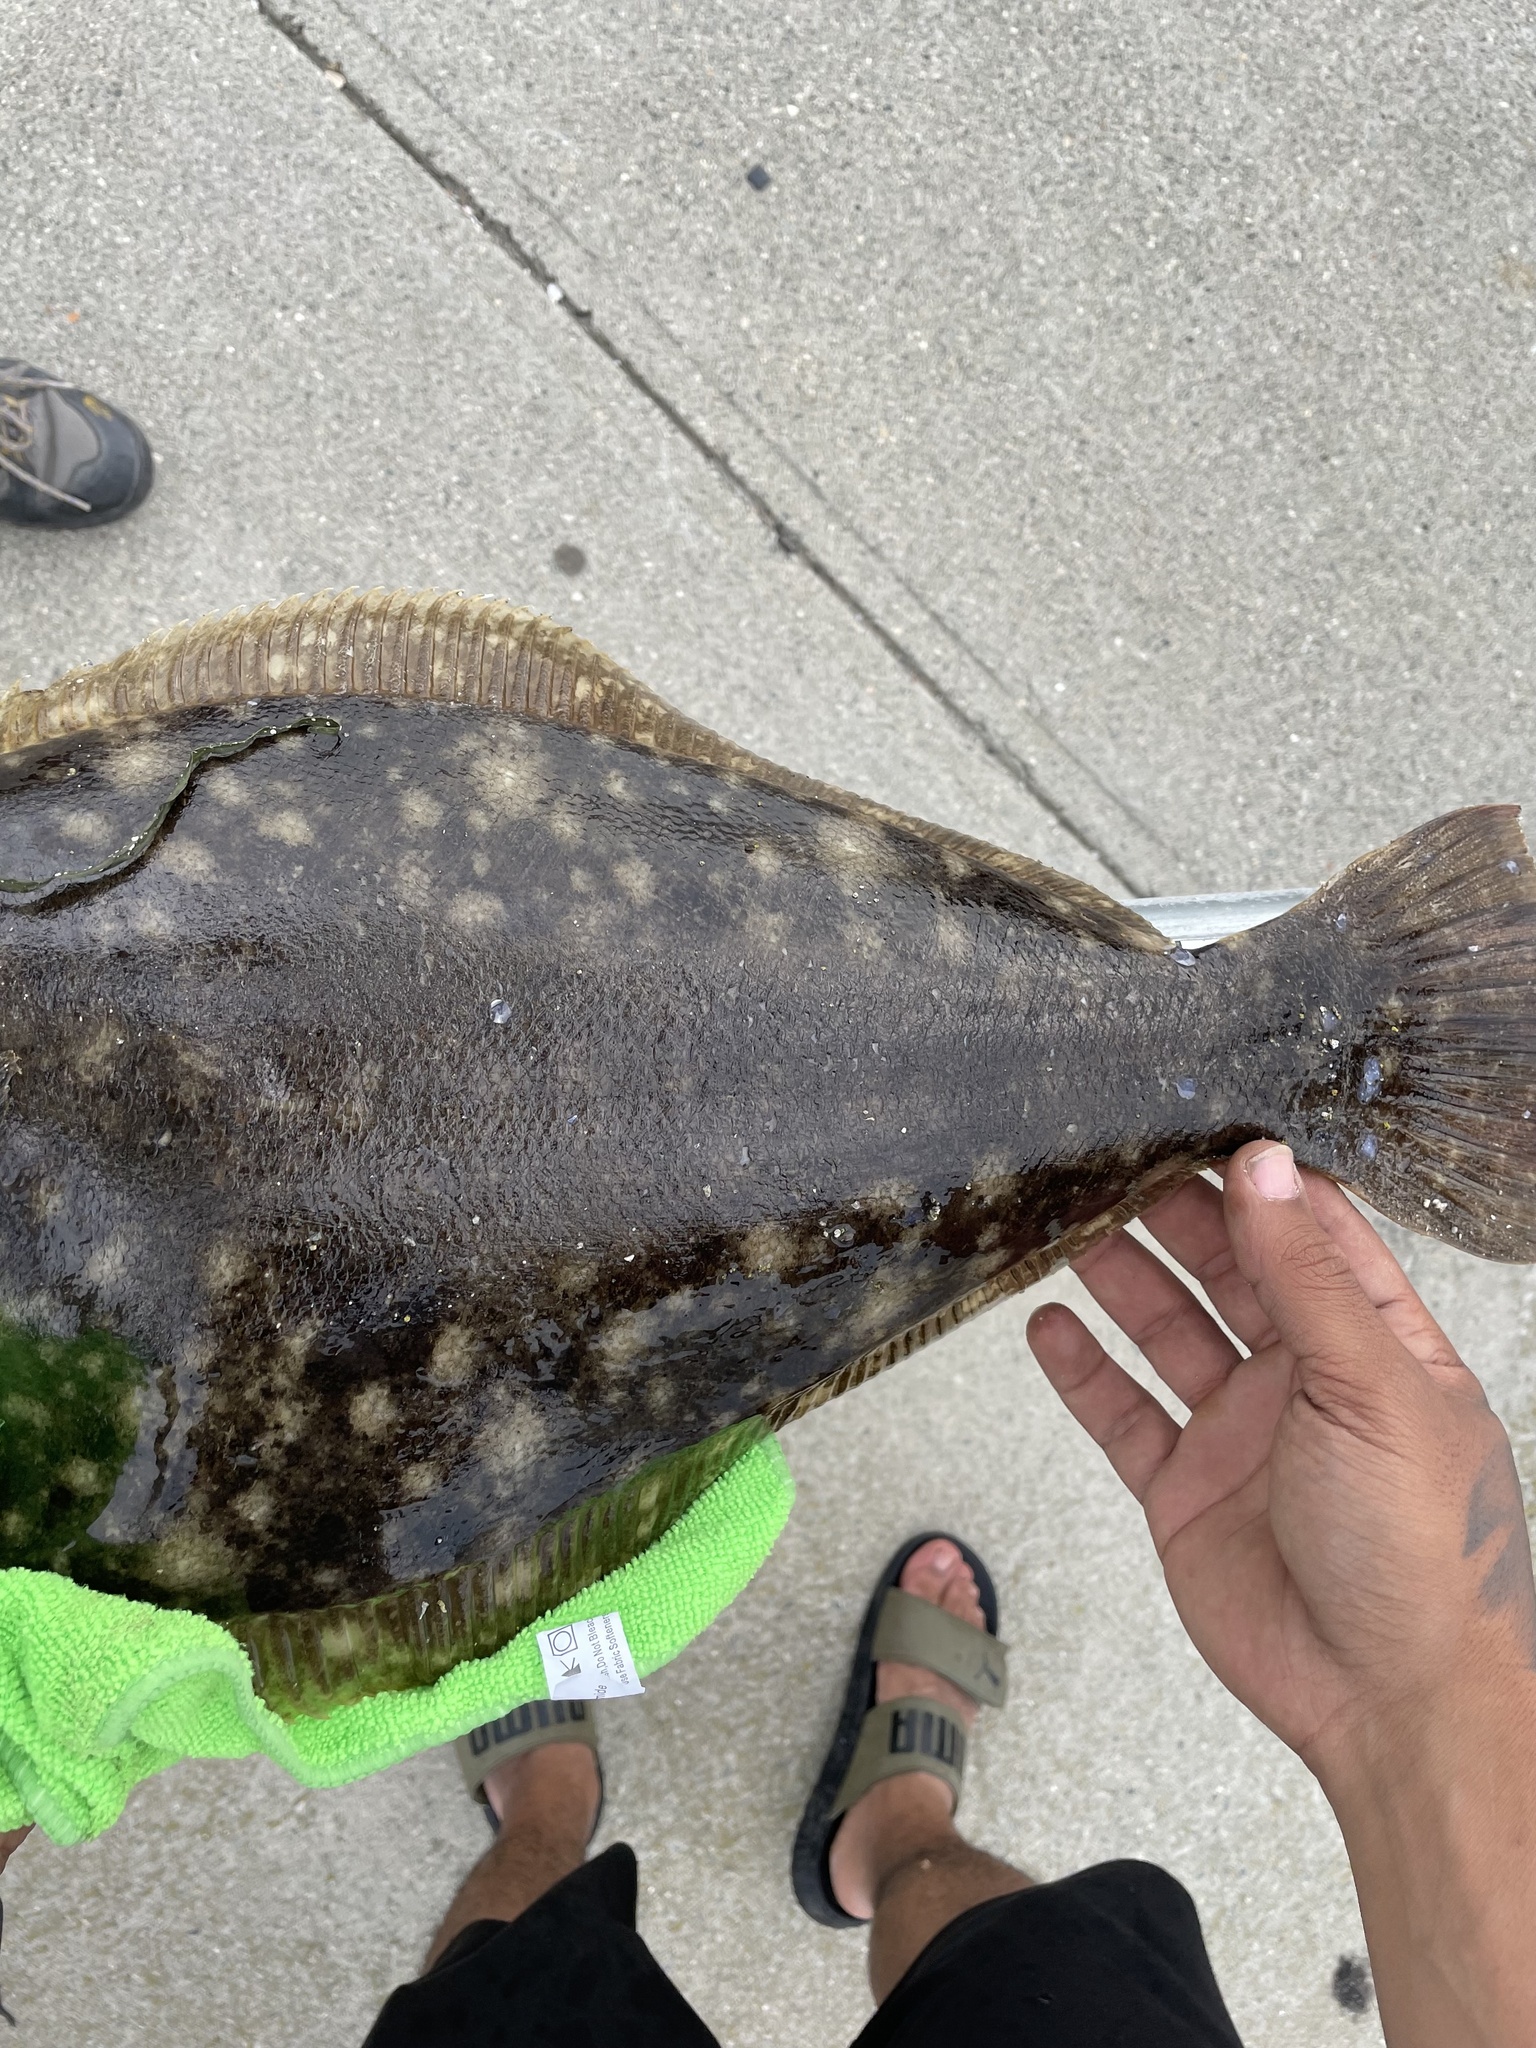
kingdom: Animalia
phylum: Chordata
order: Pleuronectiformes
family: Paralichthyidae
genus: Paralichthys
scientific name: Paralichthys lethostigma
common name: Southern flounder
